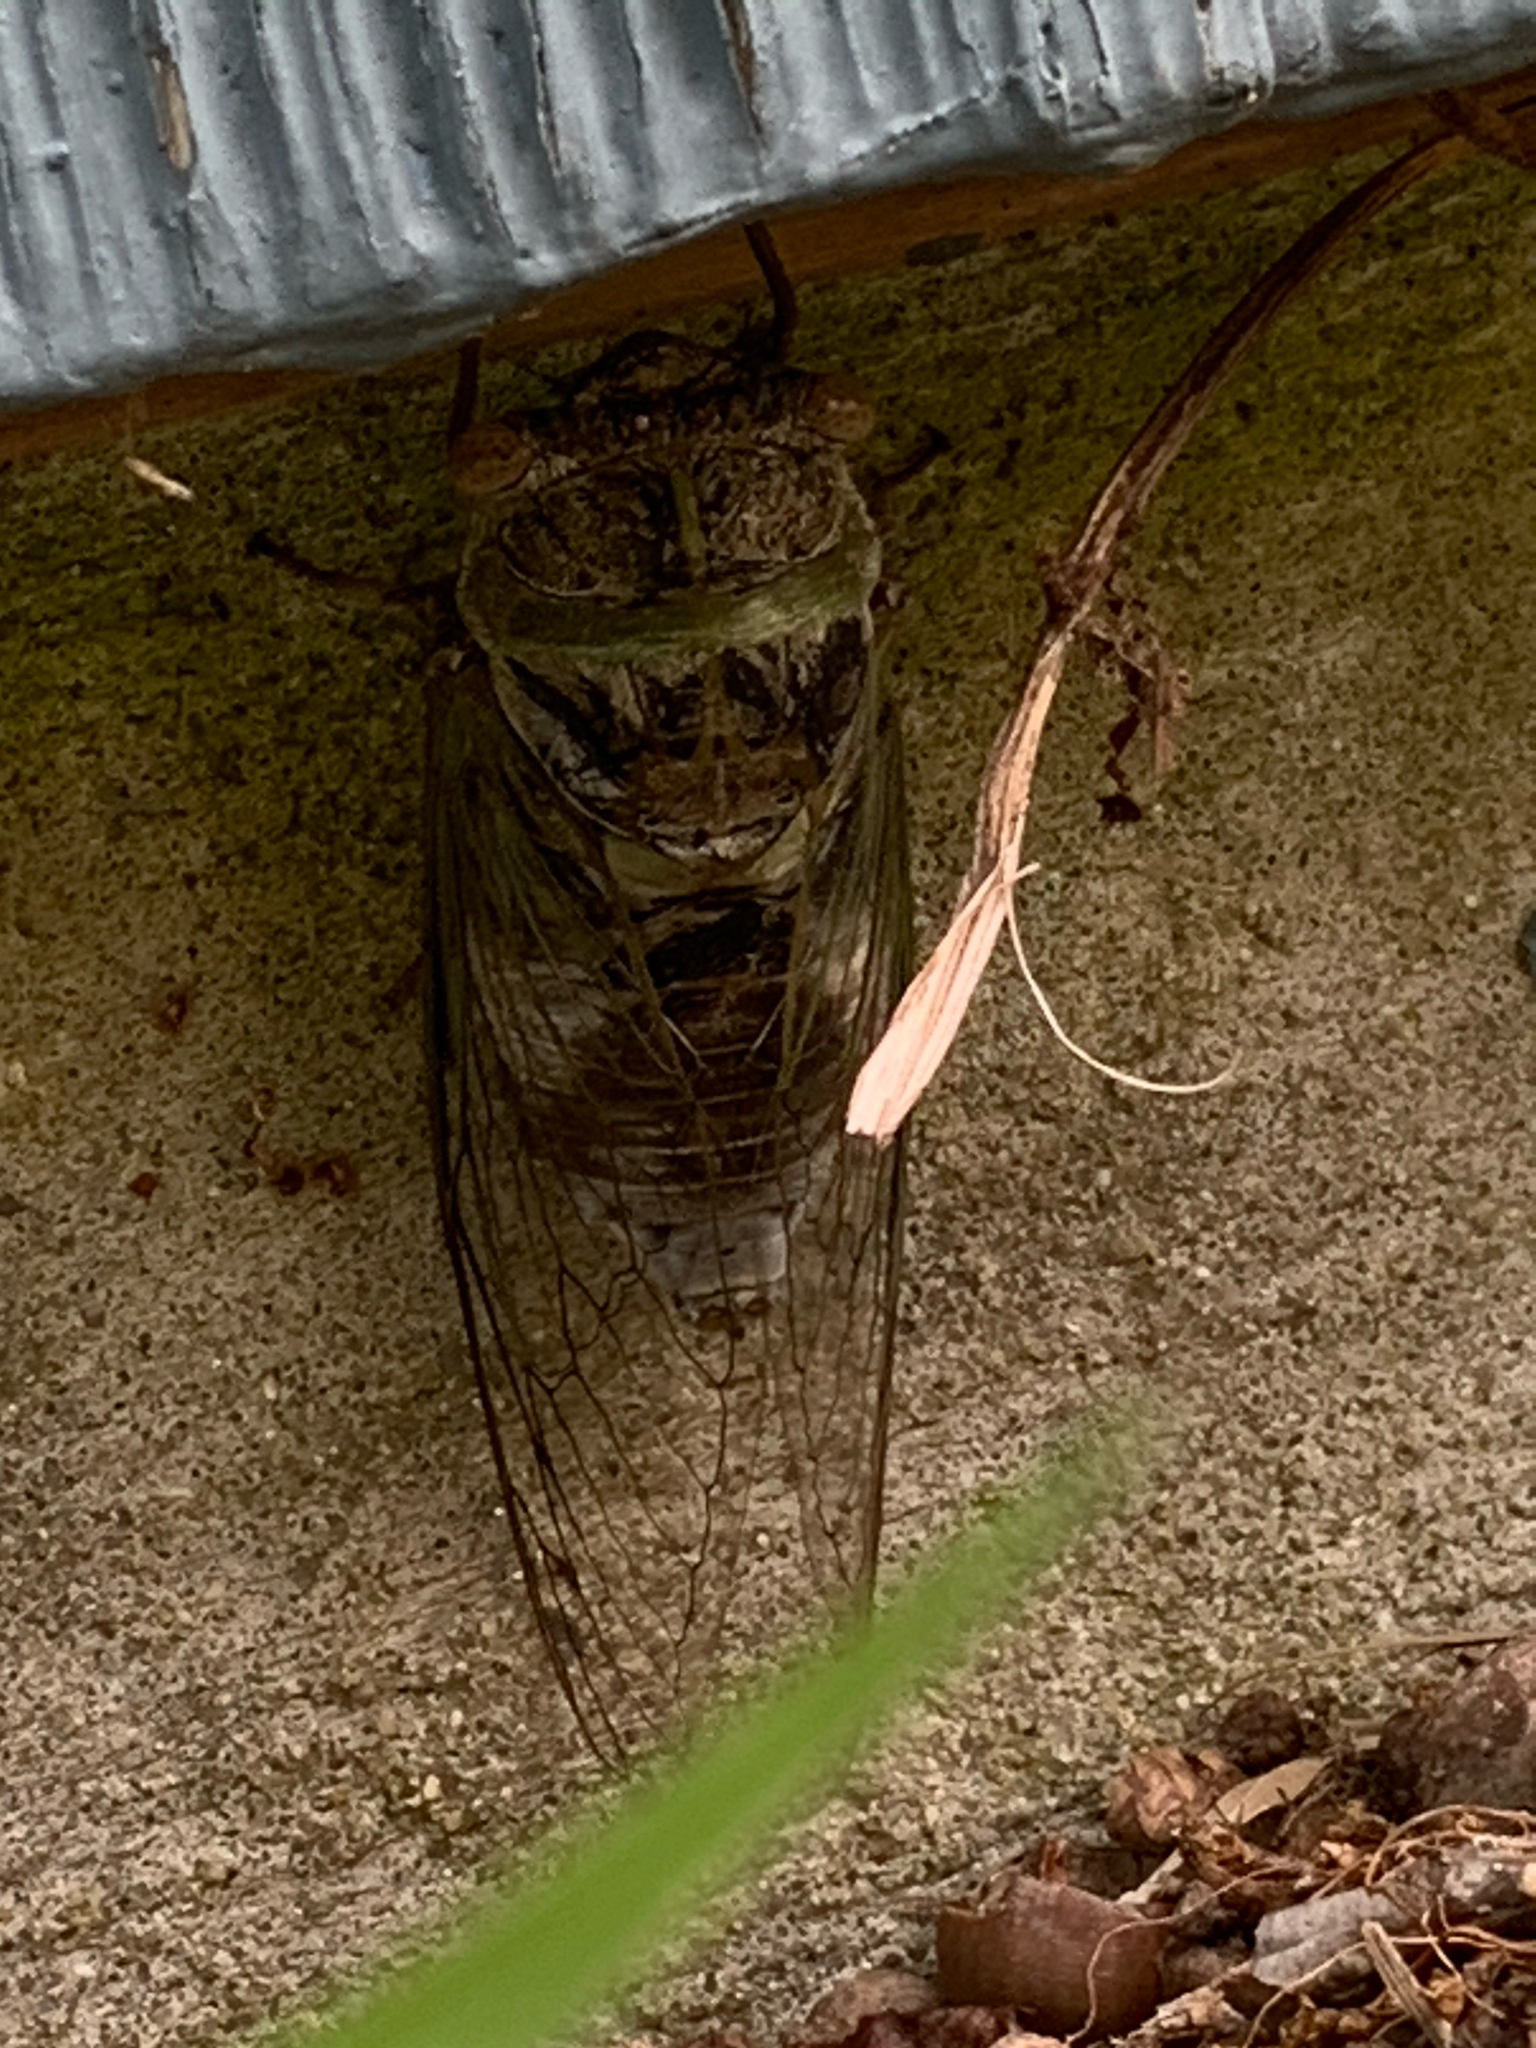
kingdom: Animalia
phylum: Arthropoda
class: Insecta
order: Hemiptera
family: Cicadidae
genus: Diceroprocta
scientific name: Diceroprocta grossa
